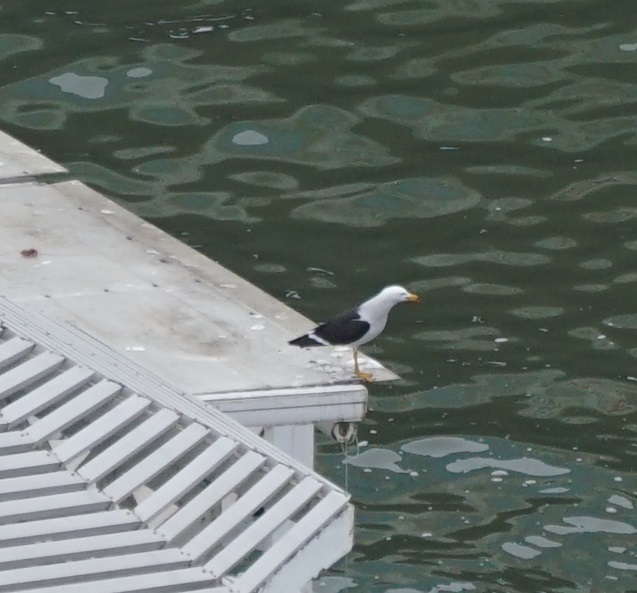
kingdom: Animalia
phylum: Chordata
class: Aves
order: Charadriiformes
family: Laridae
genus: Larus
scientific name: Larus belcheri
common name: Belcher's gull
